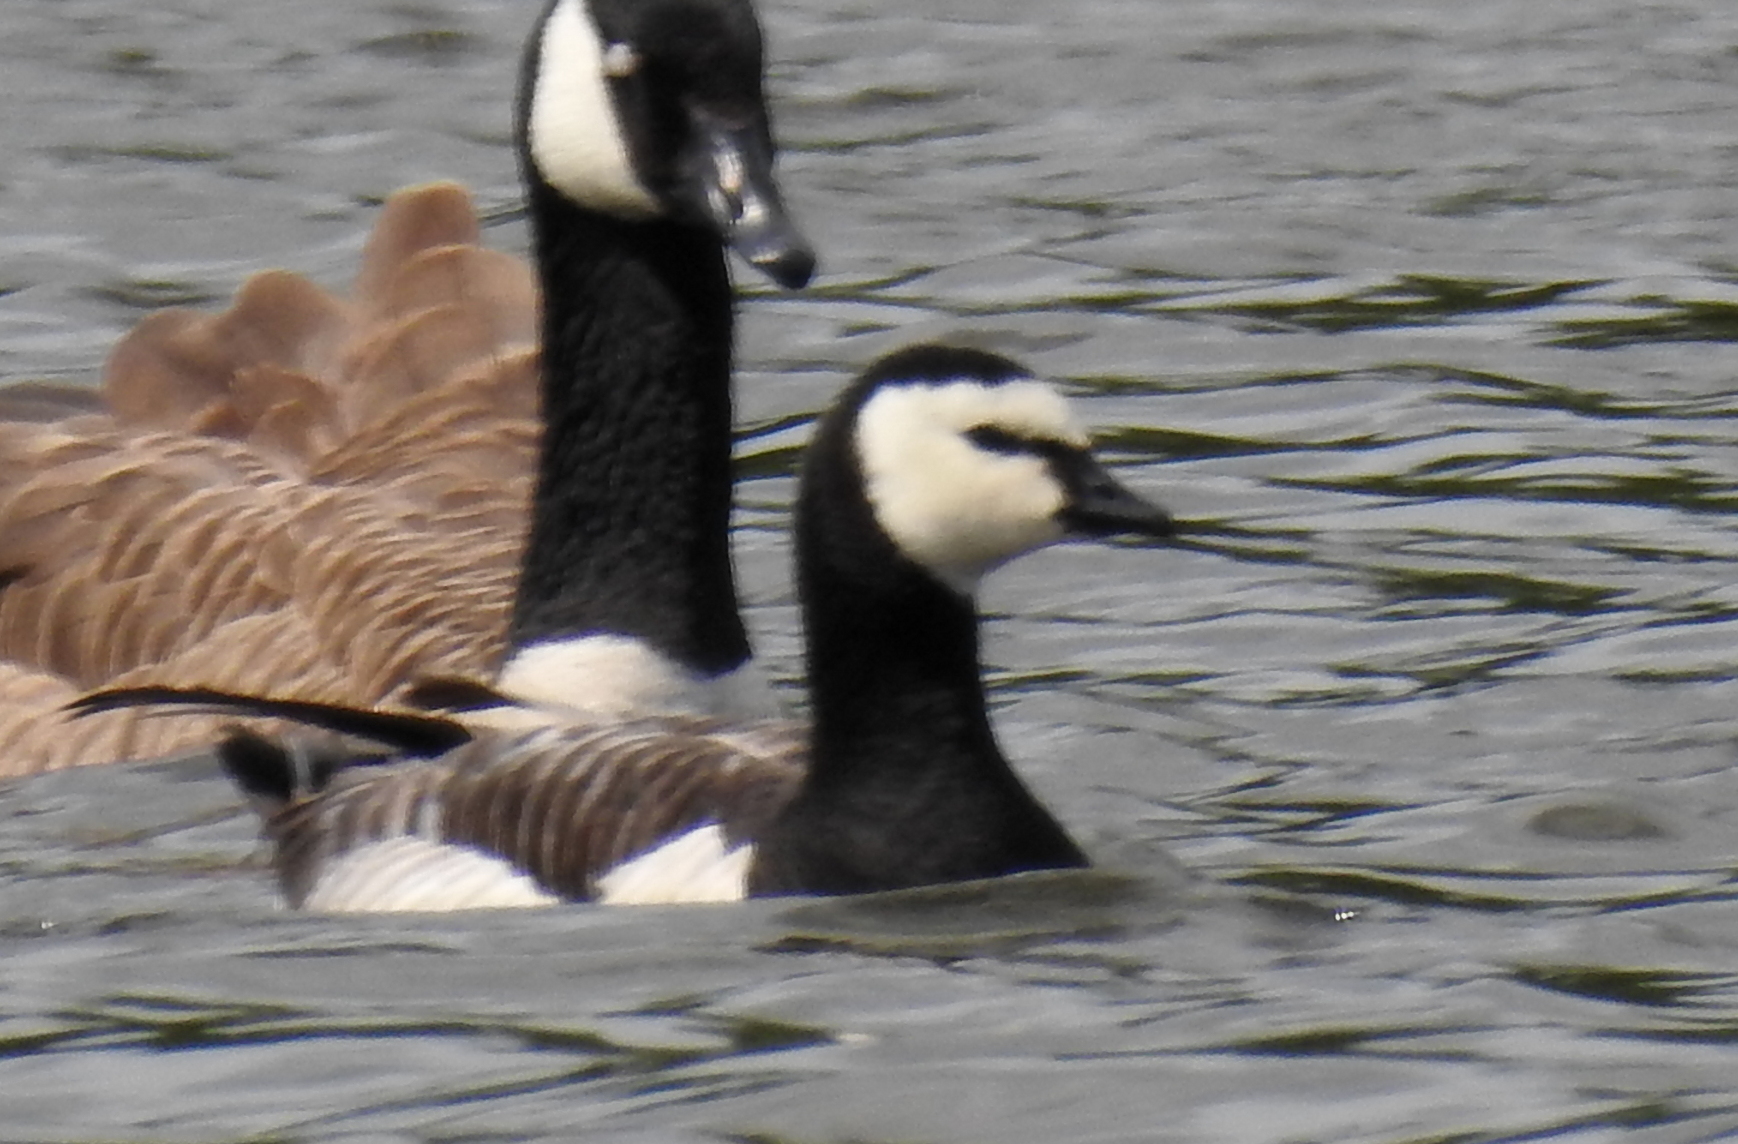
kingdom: Animalia
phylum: Chordata
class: Aves
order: Anseriformes
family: Anatidae
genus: Branta
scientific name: Branta leucopsis
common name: Barnacle goose
